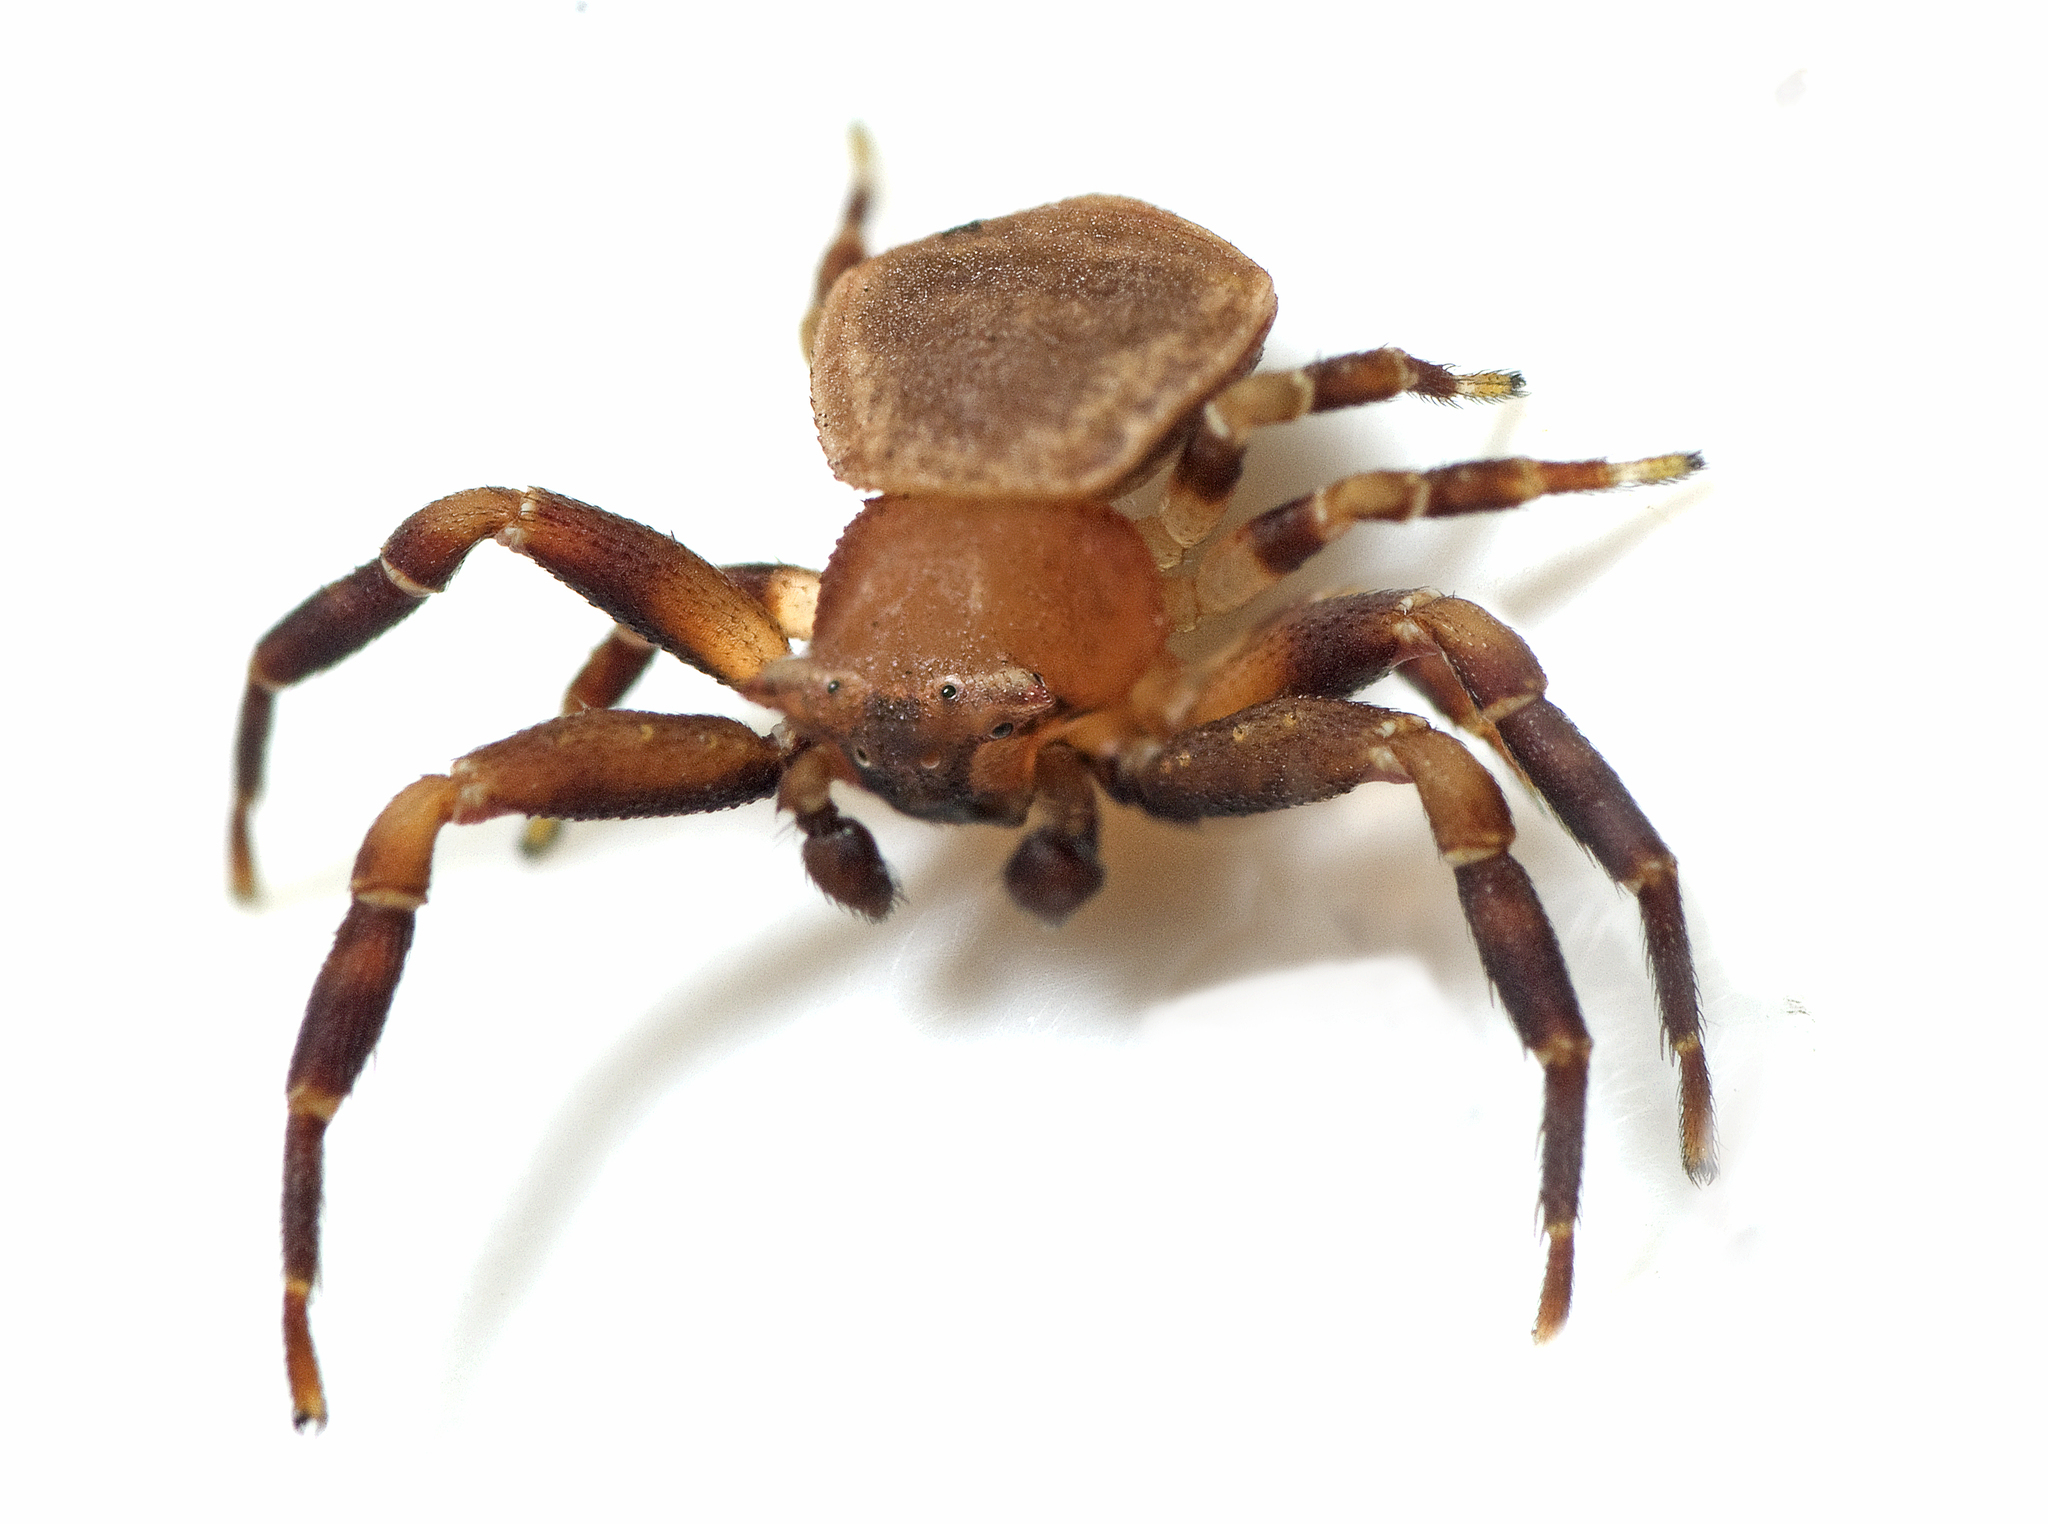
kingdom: Animalia
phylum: Arthropoda
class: Arachnida
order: Araneae
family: Thomisidae
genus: Thomisus
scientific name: Thomisus spectabilis
